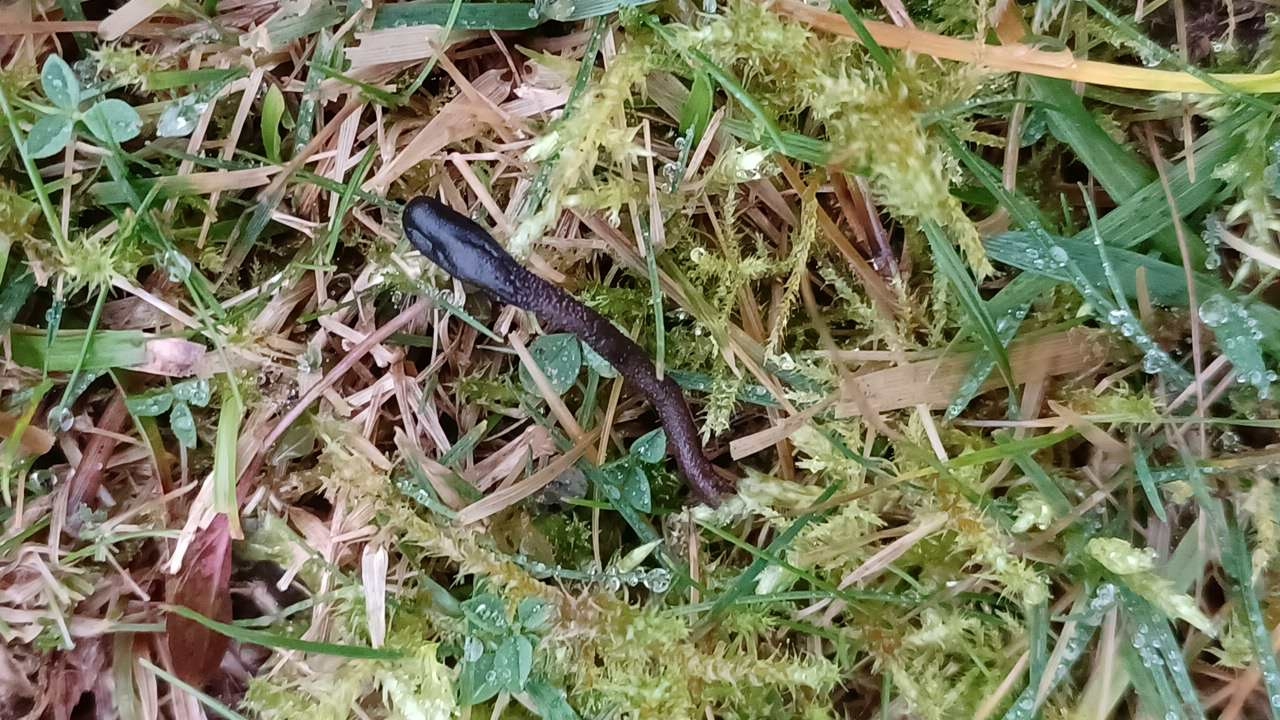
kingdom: Fungi
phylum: Ascomycota
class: Geoglossomycetes
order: Geoglossales
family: Geoglossaceae
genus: Geoglossum
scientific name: Geoglossum fallax
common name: Deceptive earthtongue
